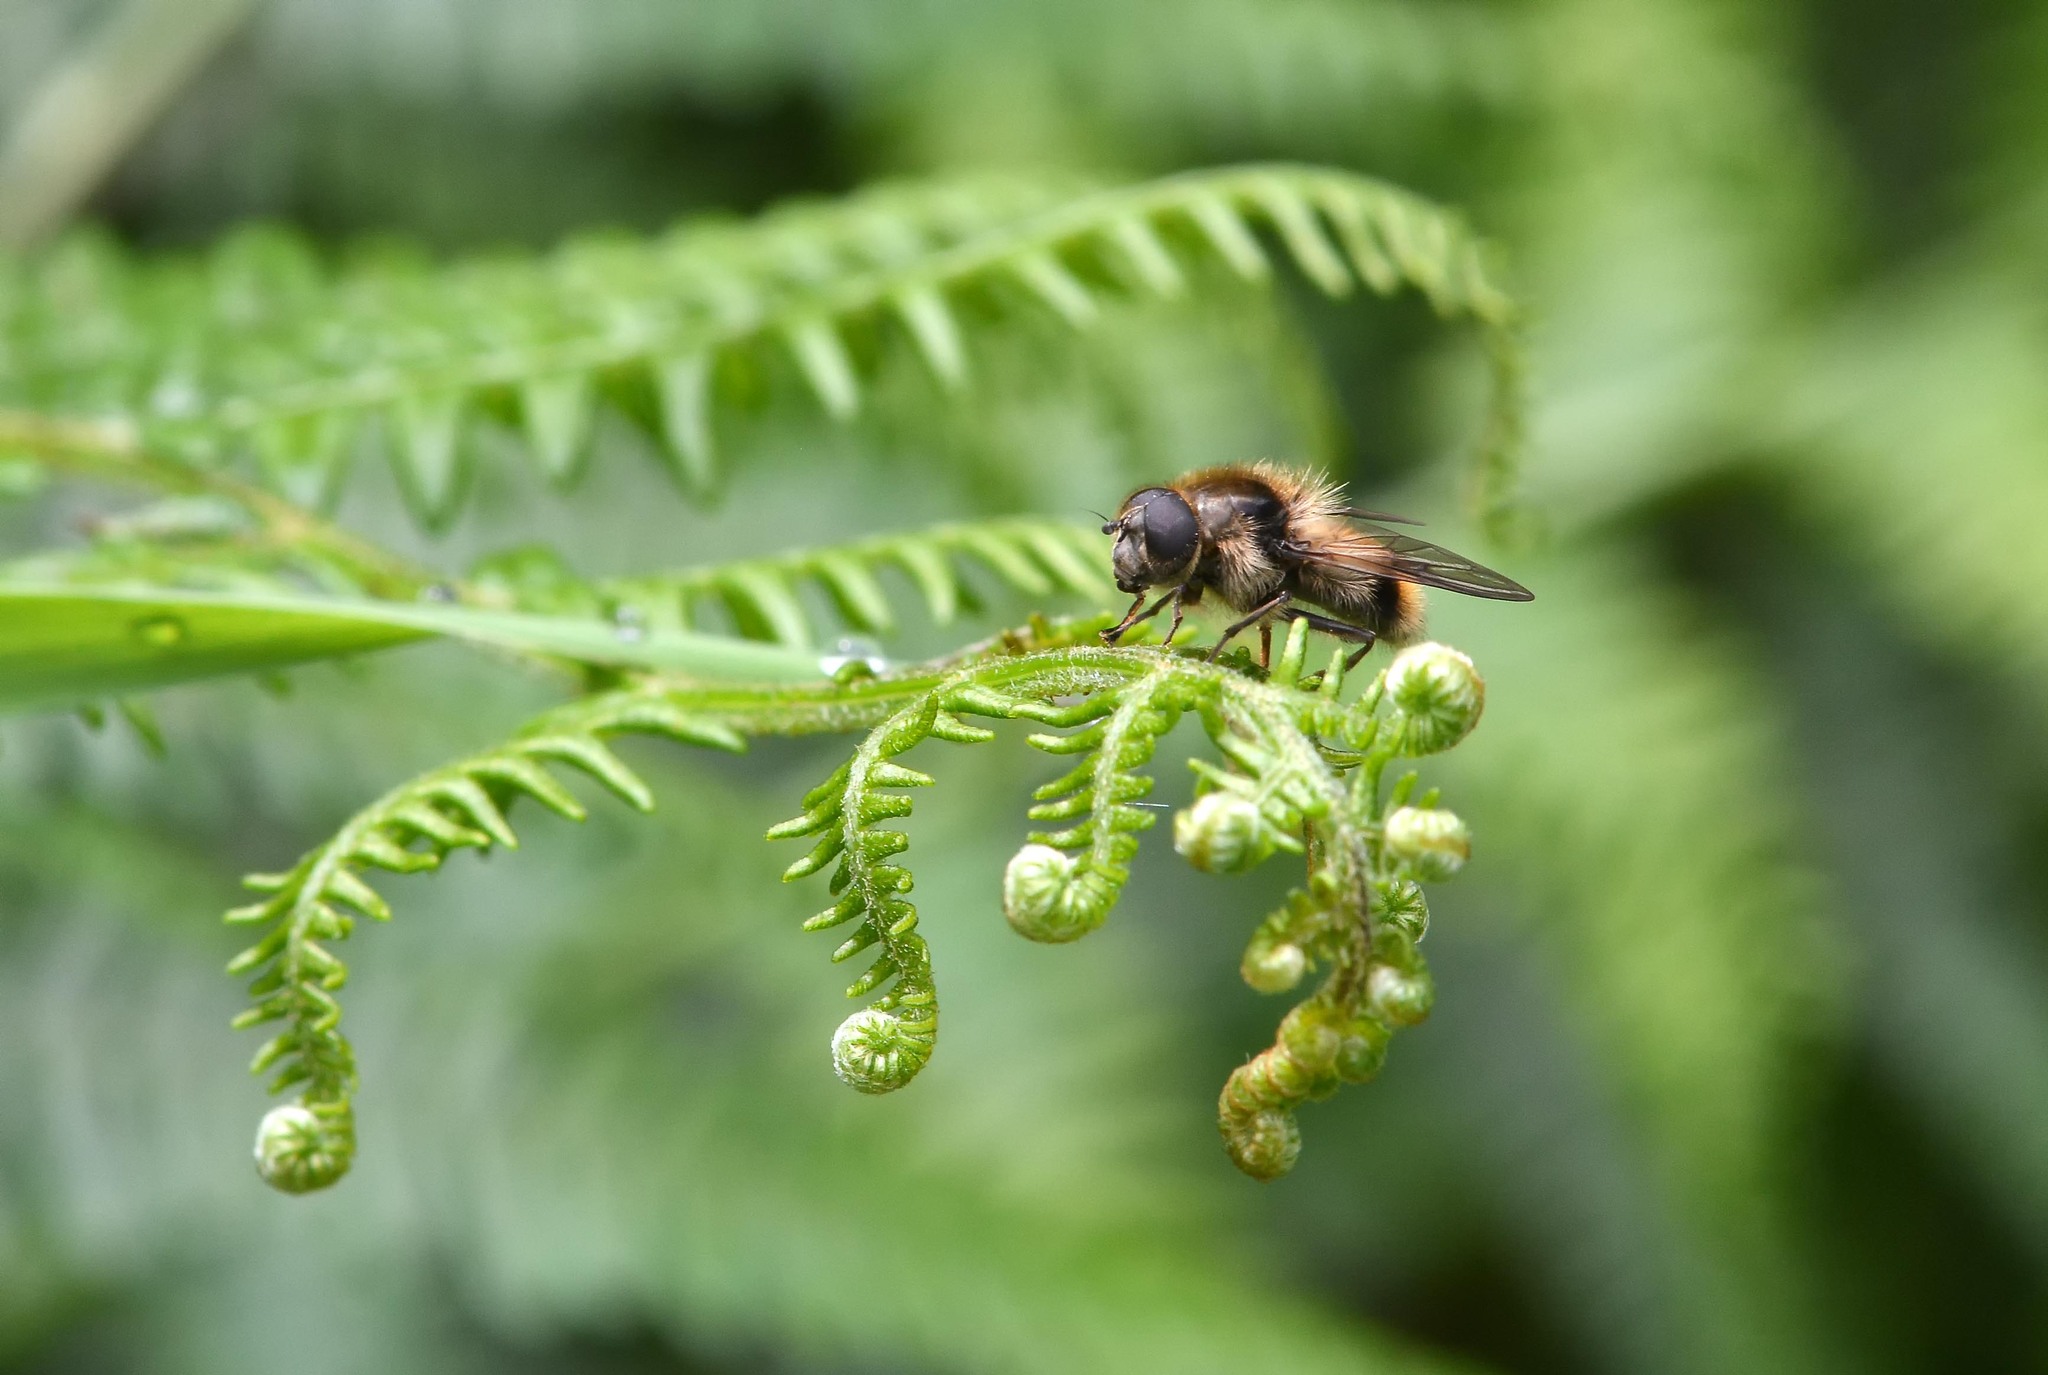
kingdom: Animalia
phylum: Arthropoda
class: Insecta
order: Diptera
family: Syrphidae
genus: Cheilosia
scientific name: Cheilosia illustrata
